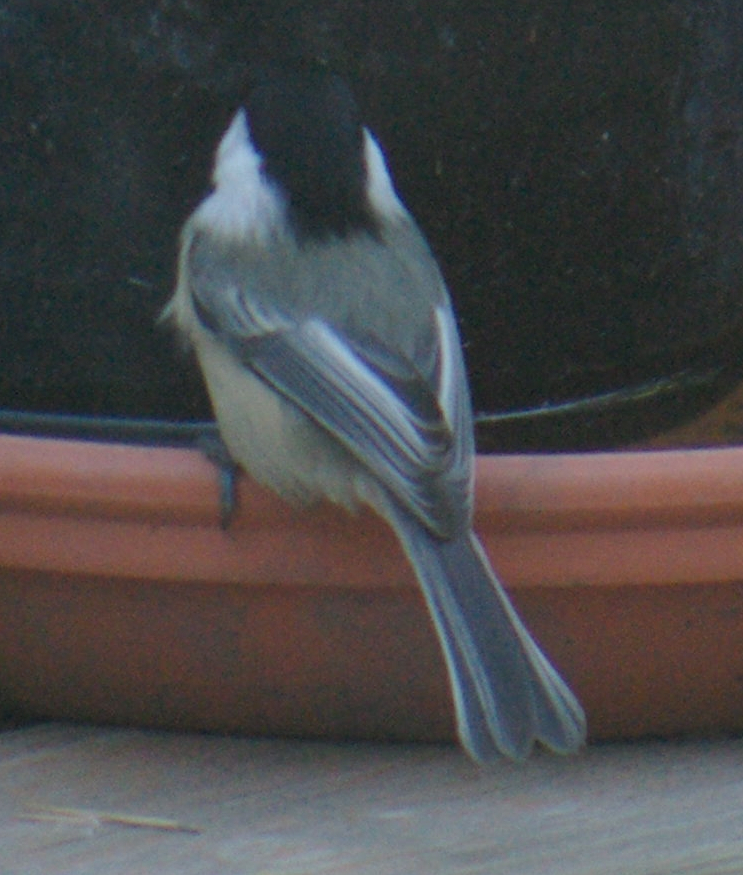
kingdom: Animalia
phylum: Chordata
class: Aves
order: Passeriformes
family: Paridae
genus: Poecile
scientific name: Poecile atricapillus
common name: Black-capped chickadee
